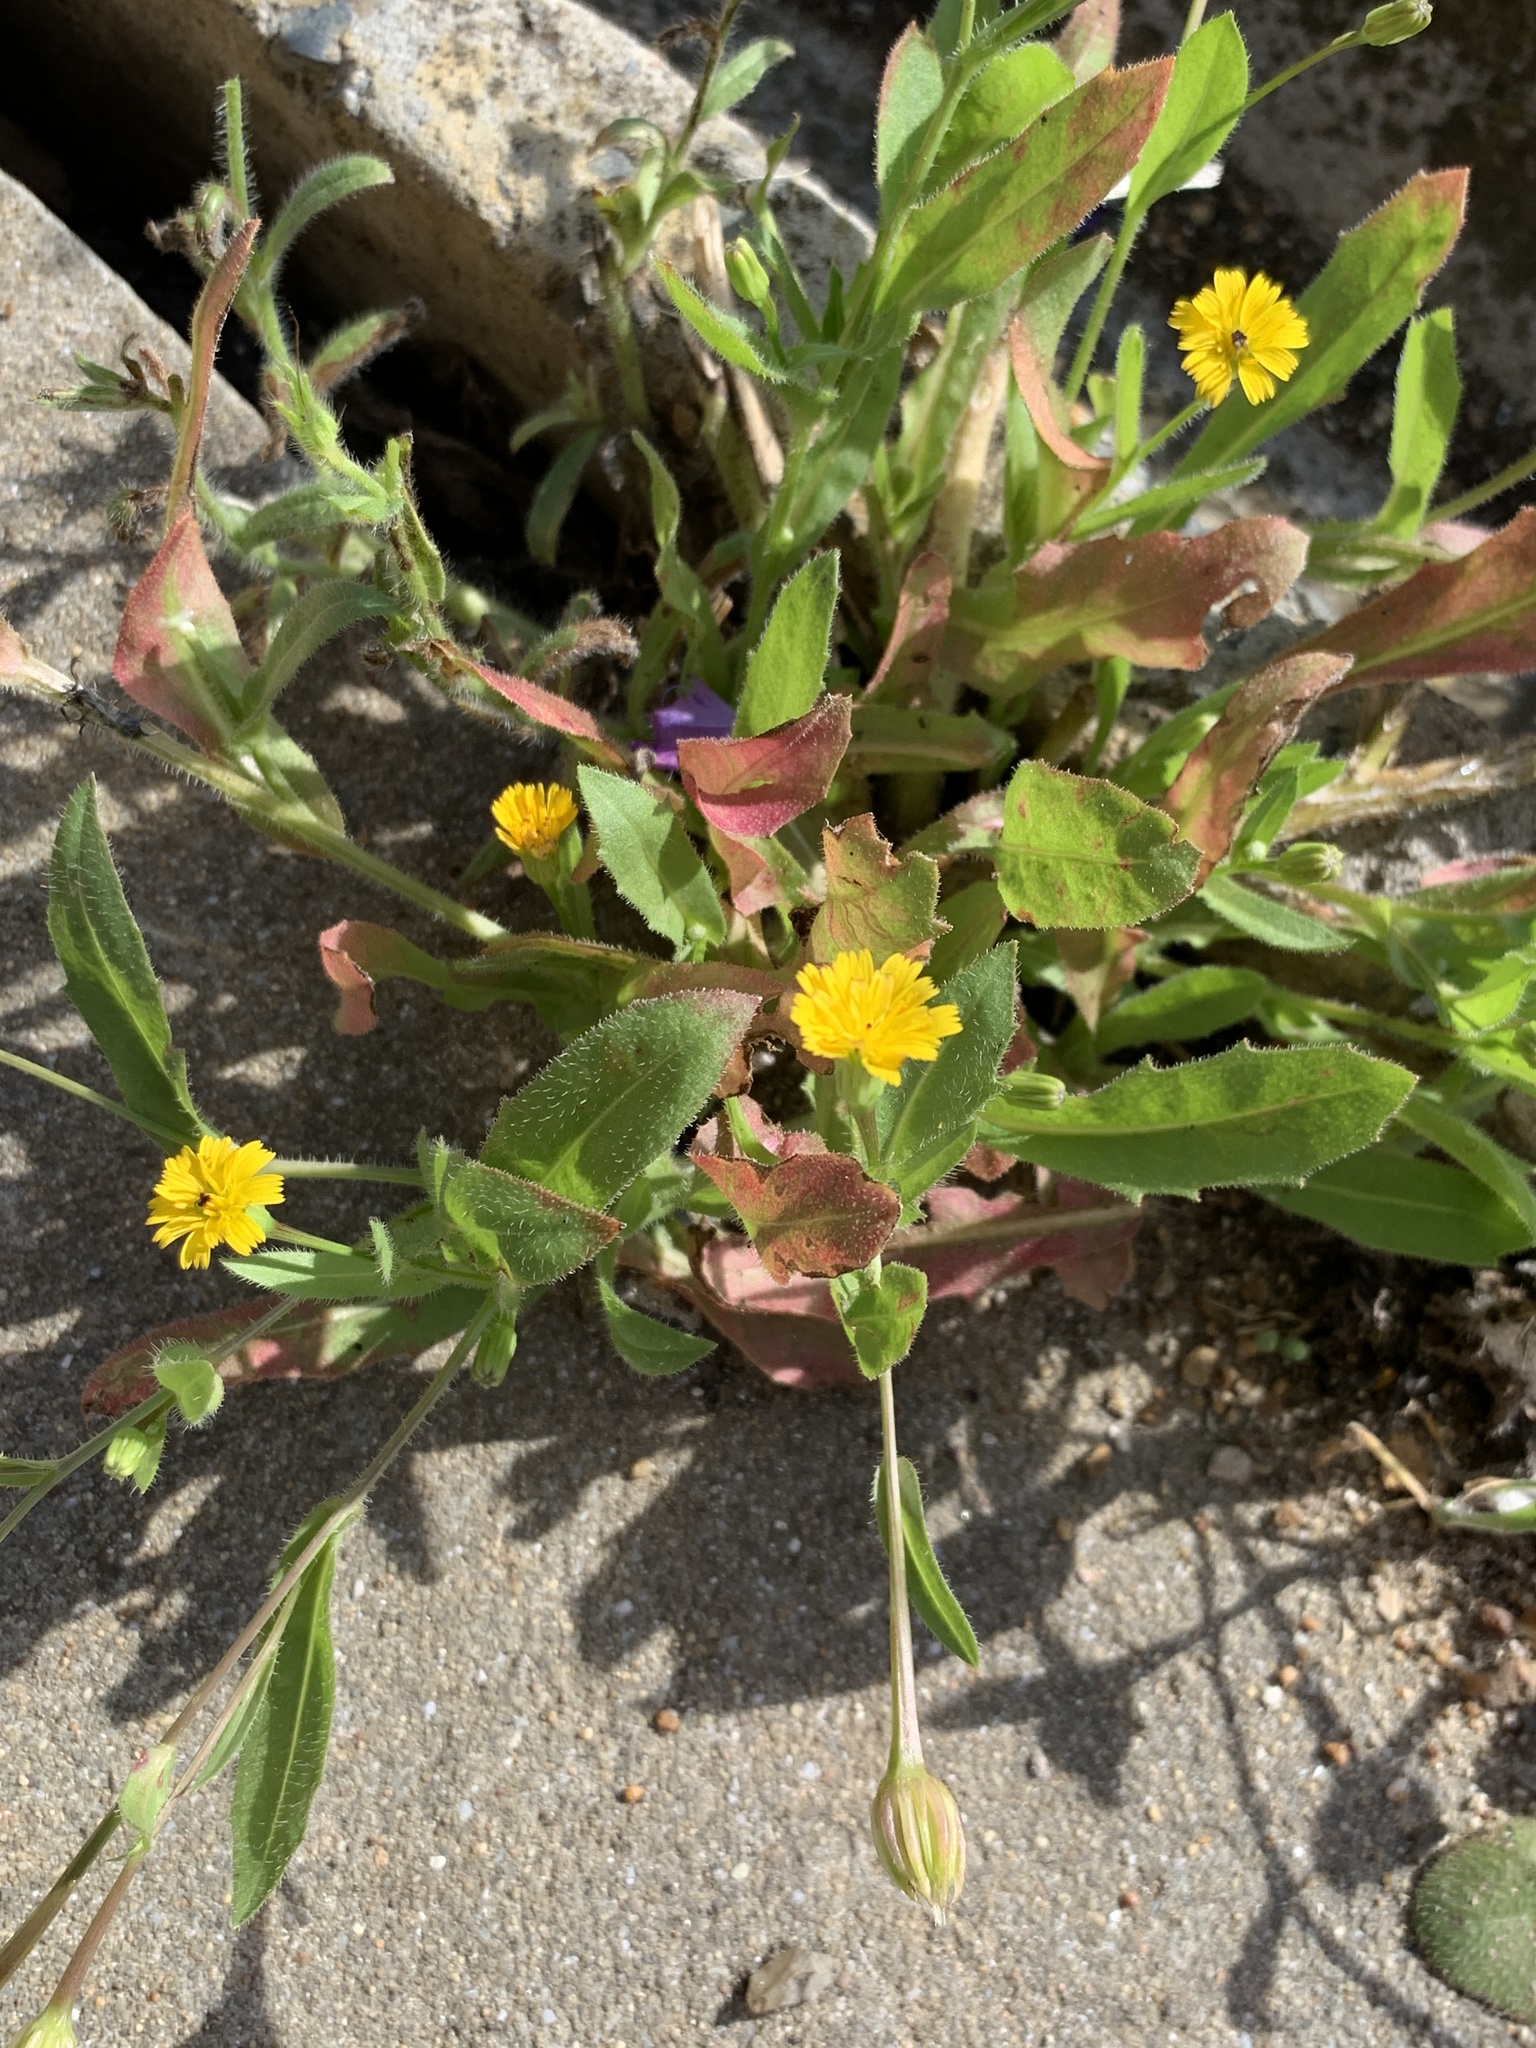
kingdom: Plantae
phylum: Tracheophyta
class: Magnoliopsida
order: Asterales
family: Asteraceae
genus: Hedypnois
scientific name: Hedypnois rhagadioloides
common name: Cretan weed
